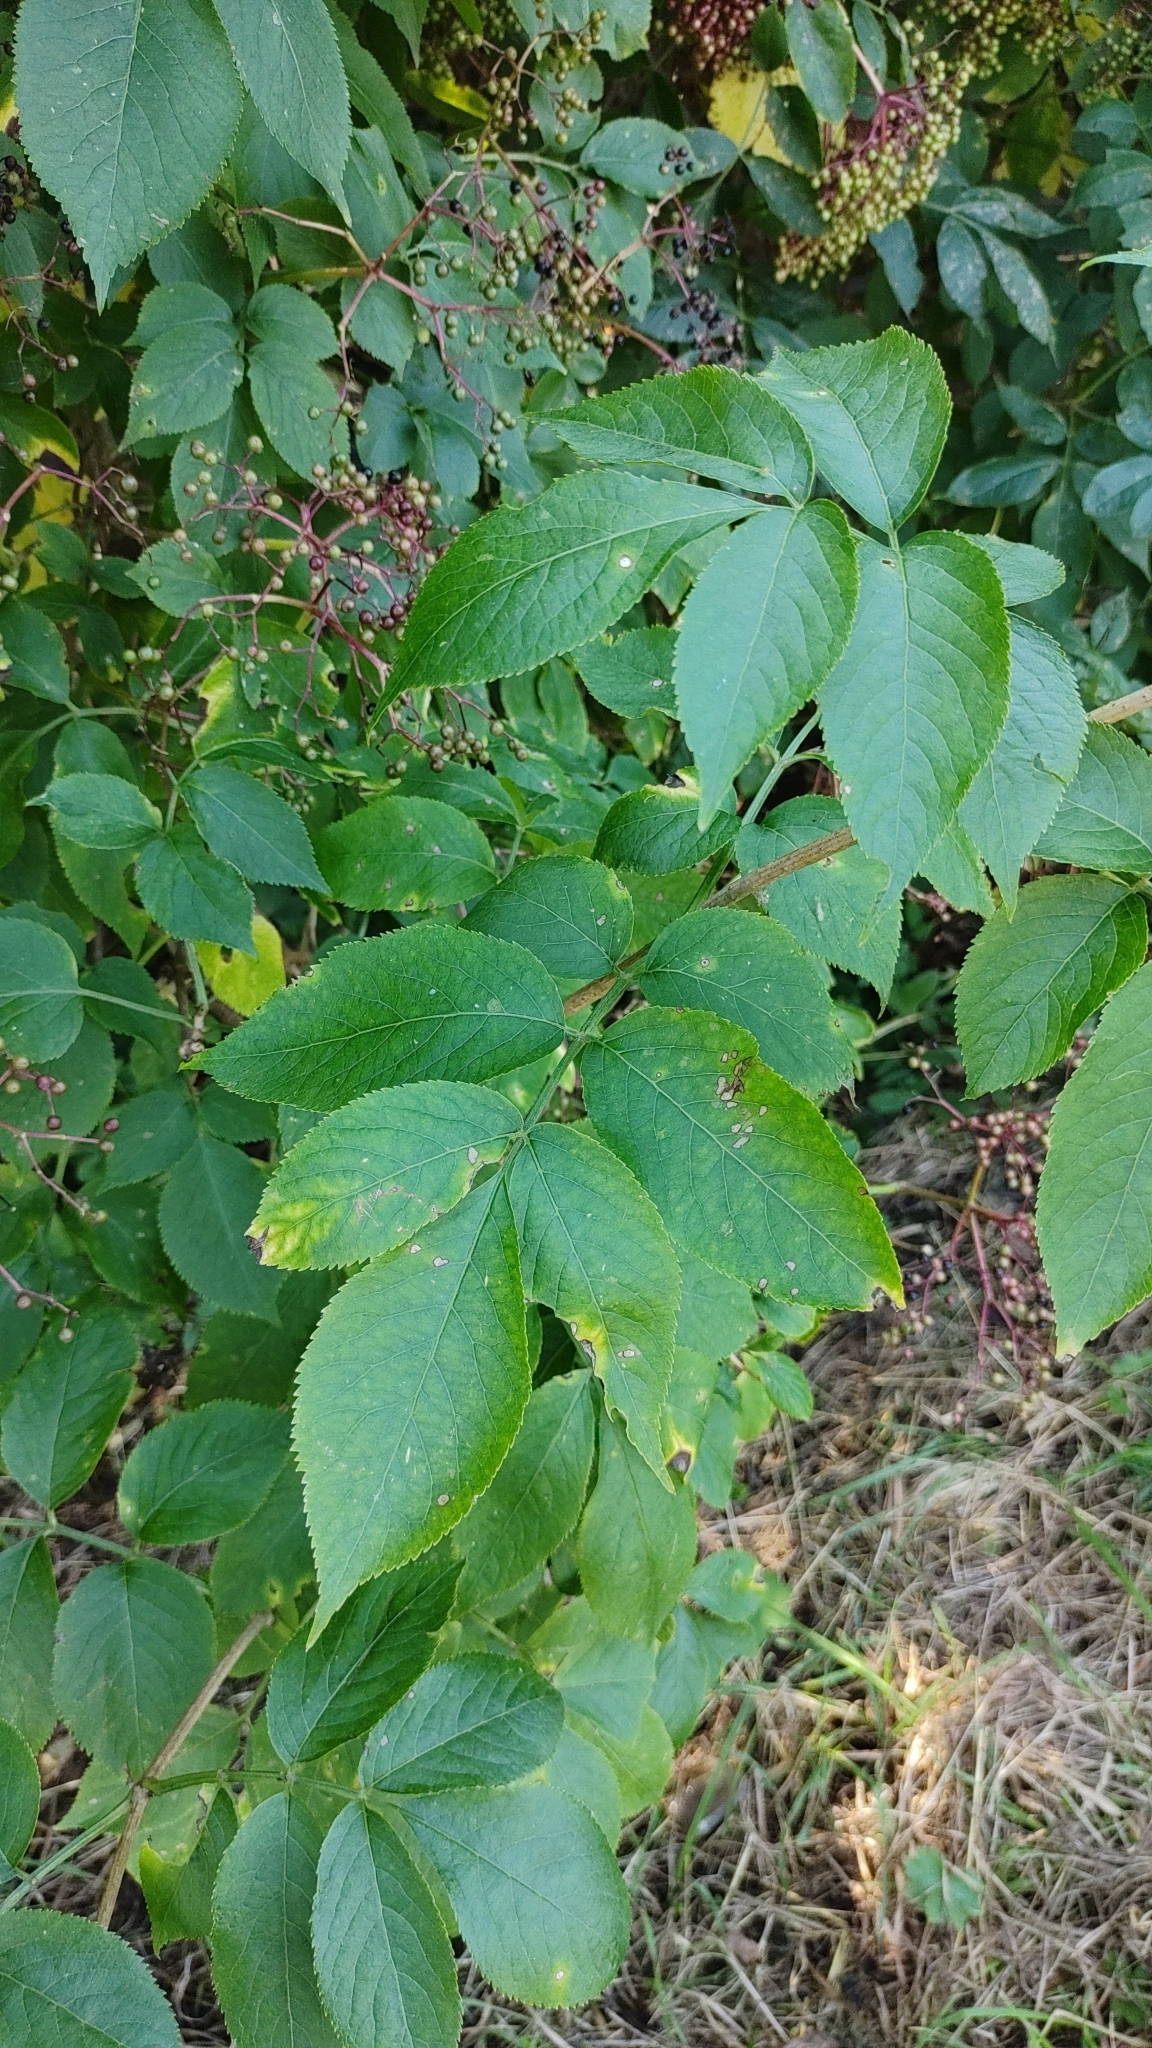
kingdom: Plantae
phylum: Tracheophyta
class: Magnoliopsida
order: Dipsacales
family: Viburnaceae
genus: Sambucus
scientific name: Sambucus nigra
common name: Elder
